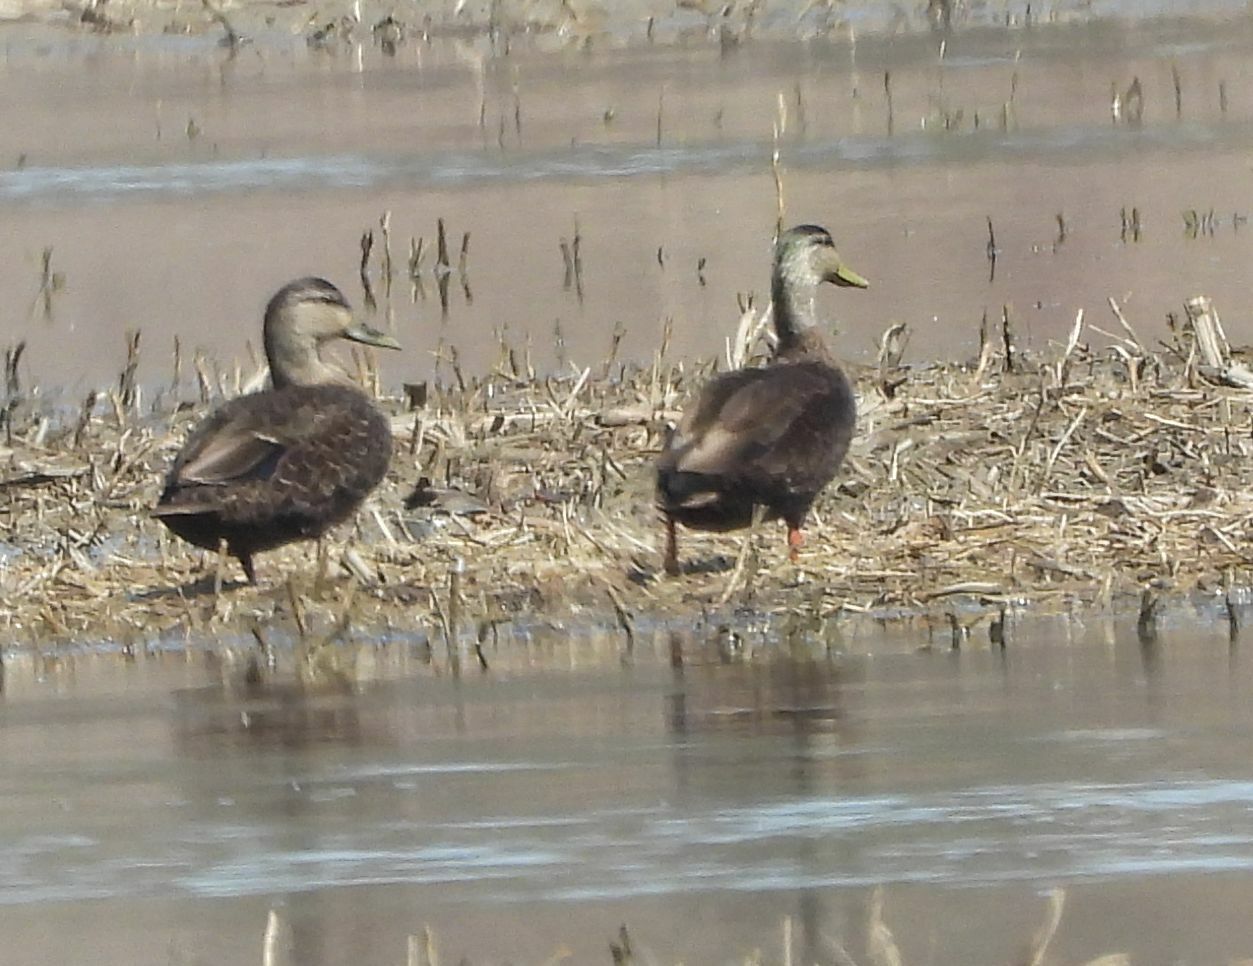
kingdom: Animalia
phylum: Chordata
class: Aves
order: Anseriformes
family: Anatidae
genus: Anas
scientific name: Anas rubripes
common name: American black duck
